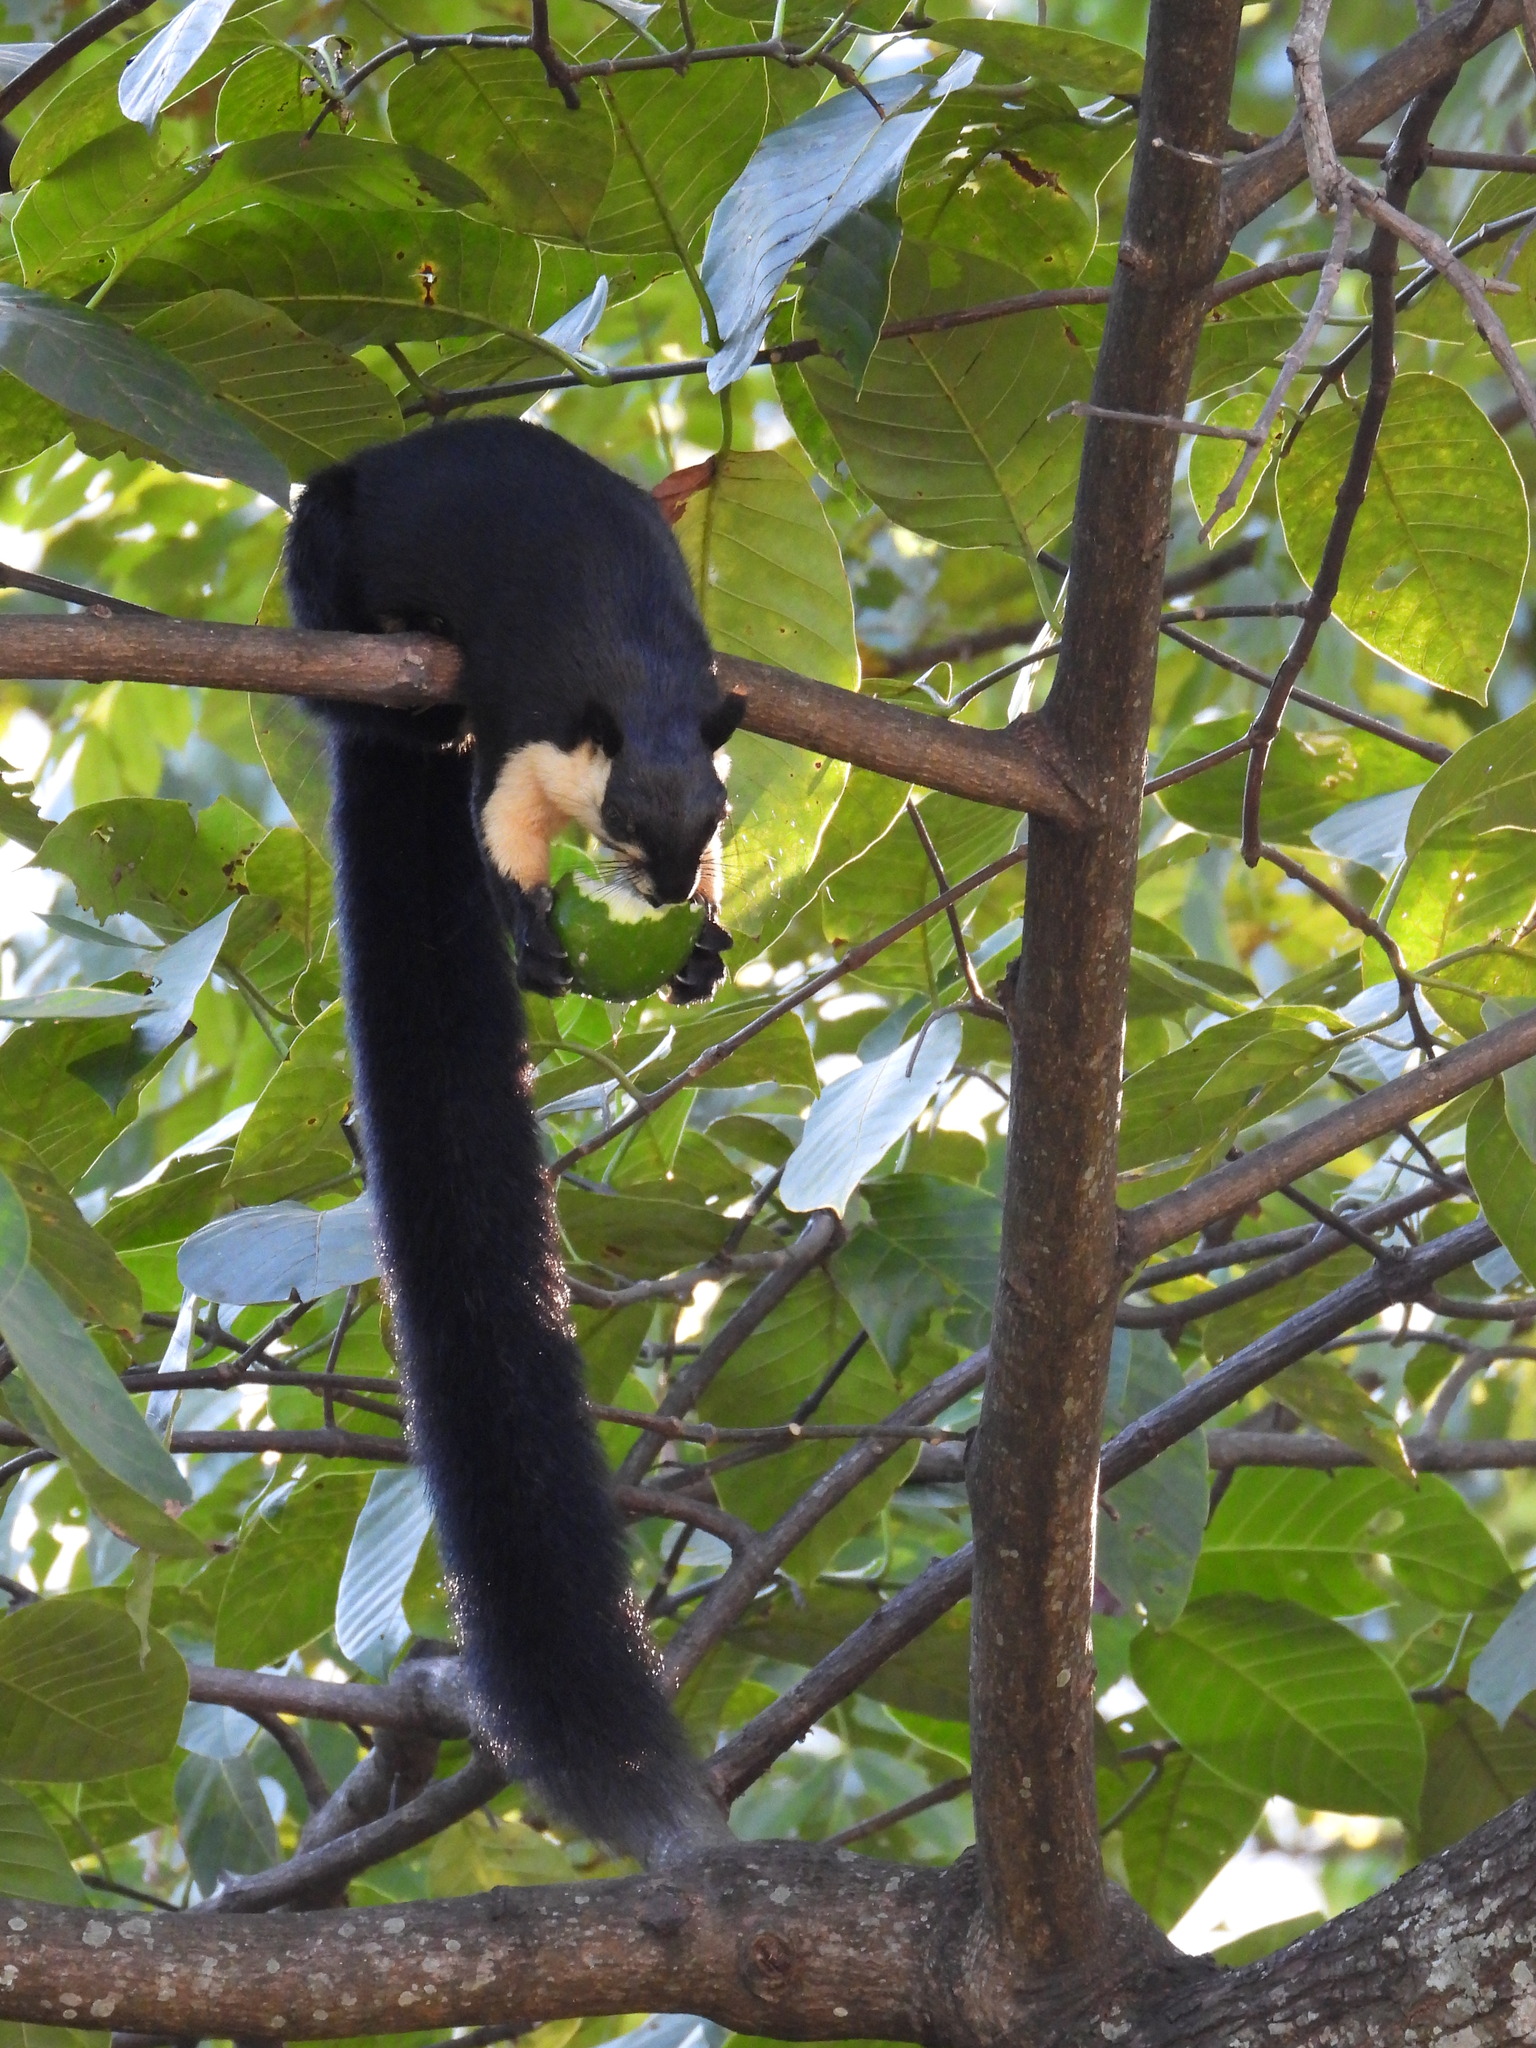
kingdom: Animalia
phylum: Chordata
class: Mammalia
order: Rodentia
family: Sciuridae
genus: Ratufa
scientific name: Ratufa bicolor
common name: Black giant squirrel
